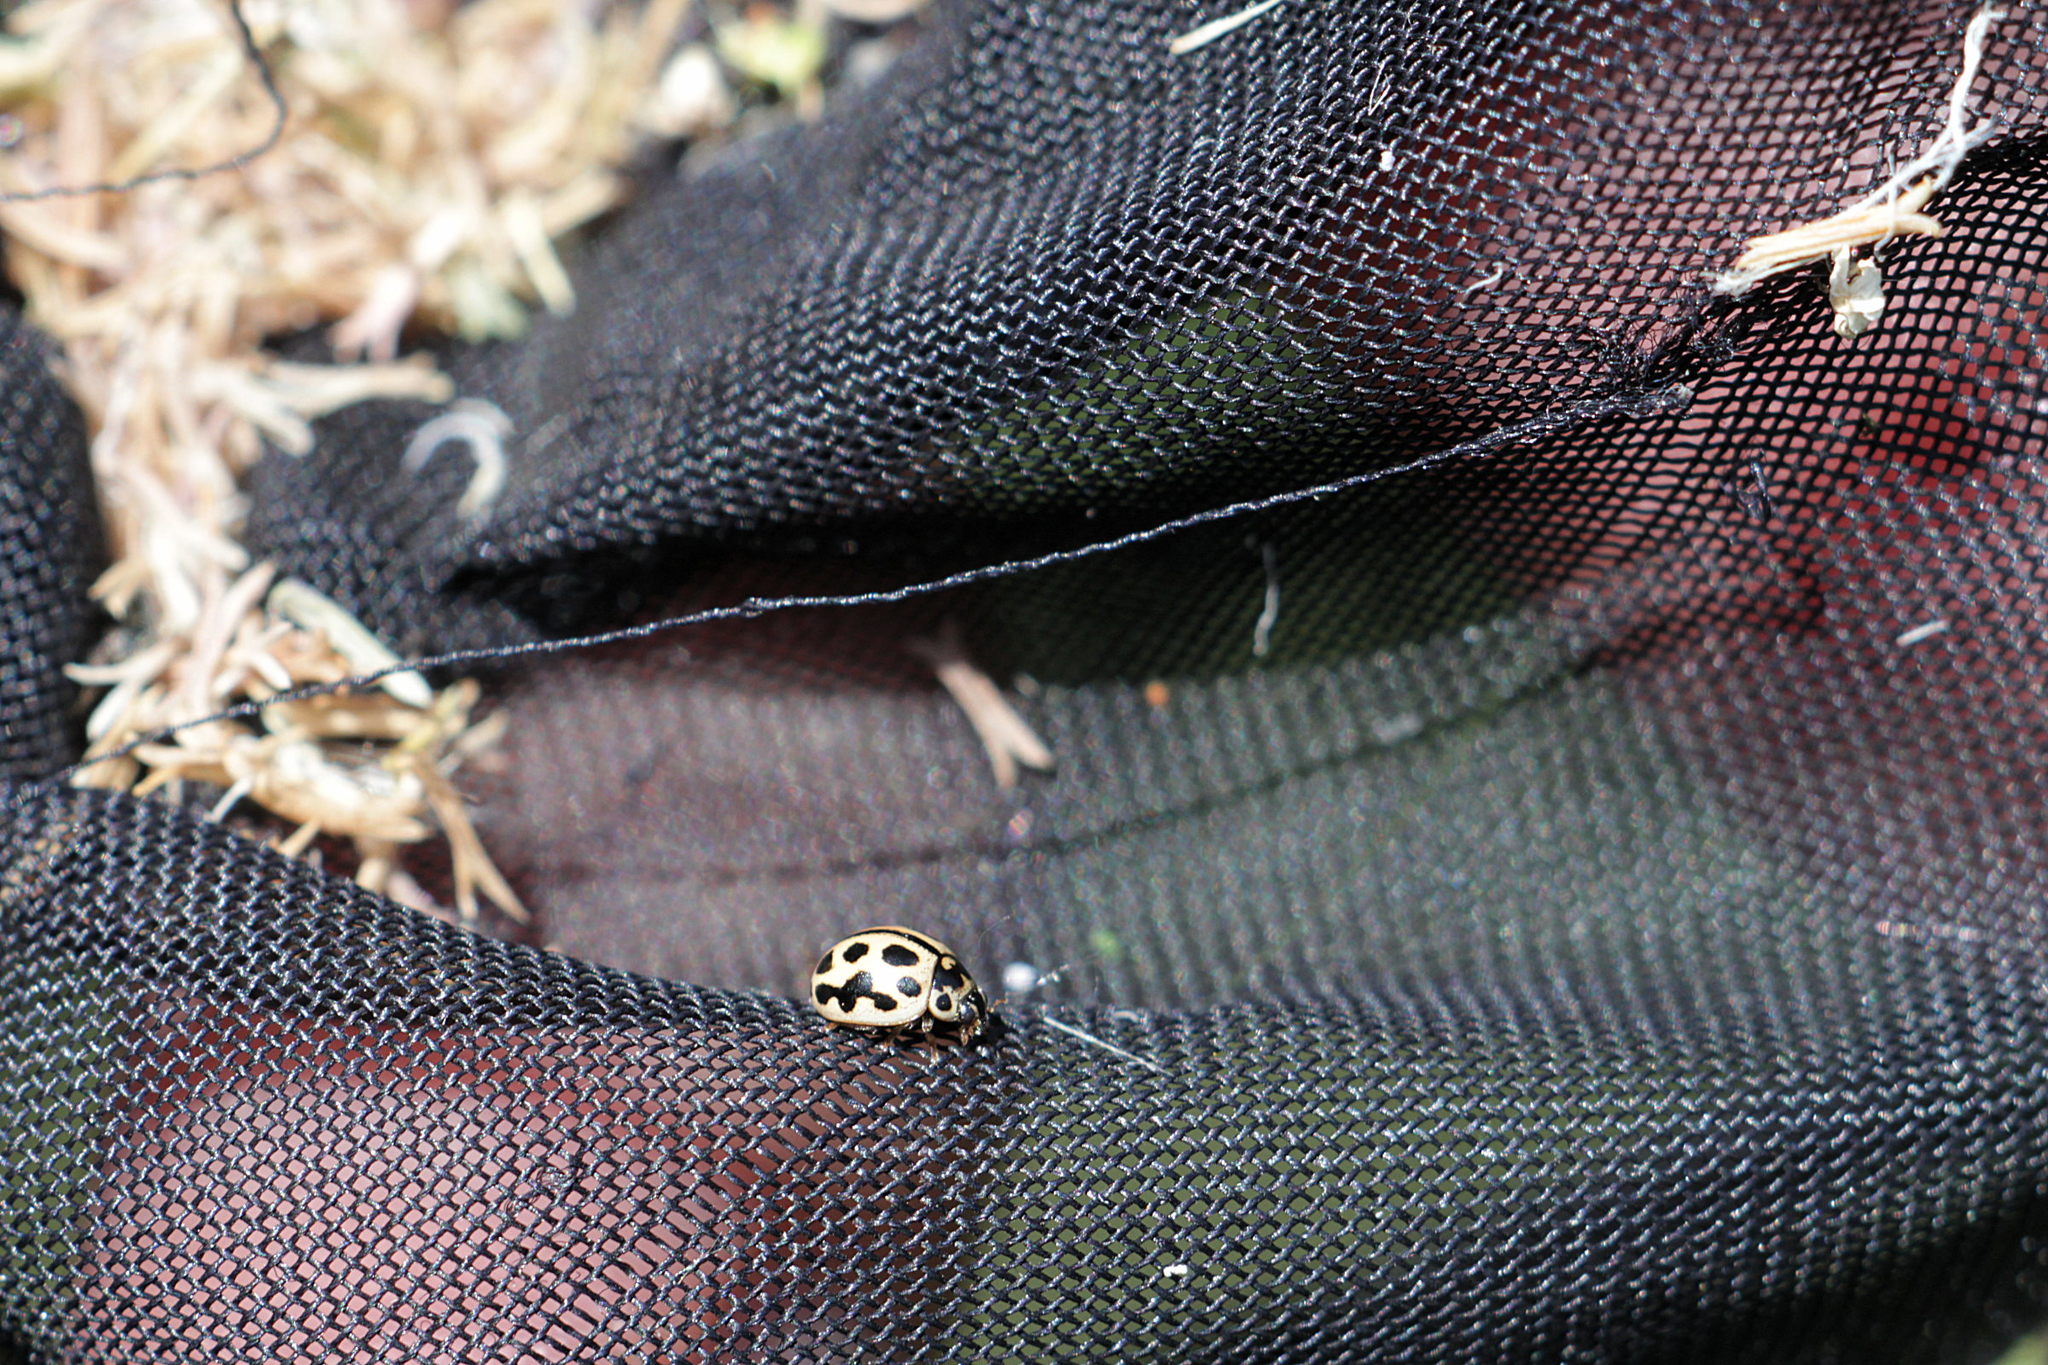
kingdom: Animalia
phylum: Arthropoda
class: Insecta
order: Coleoptera
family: Coccinellidae
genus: Tytthaspis
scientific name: Tytthaspis sedecimpunctata
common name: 16-spot ladybird
